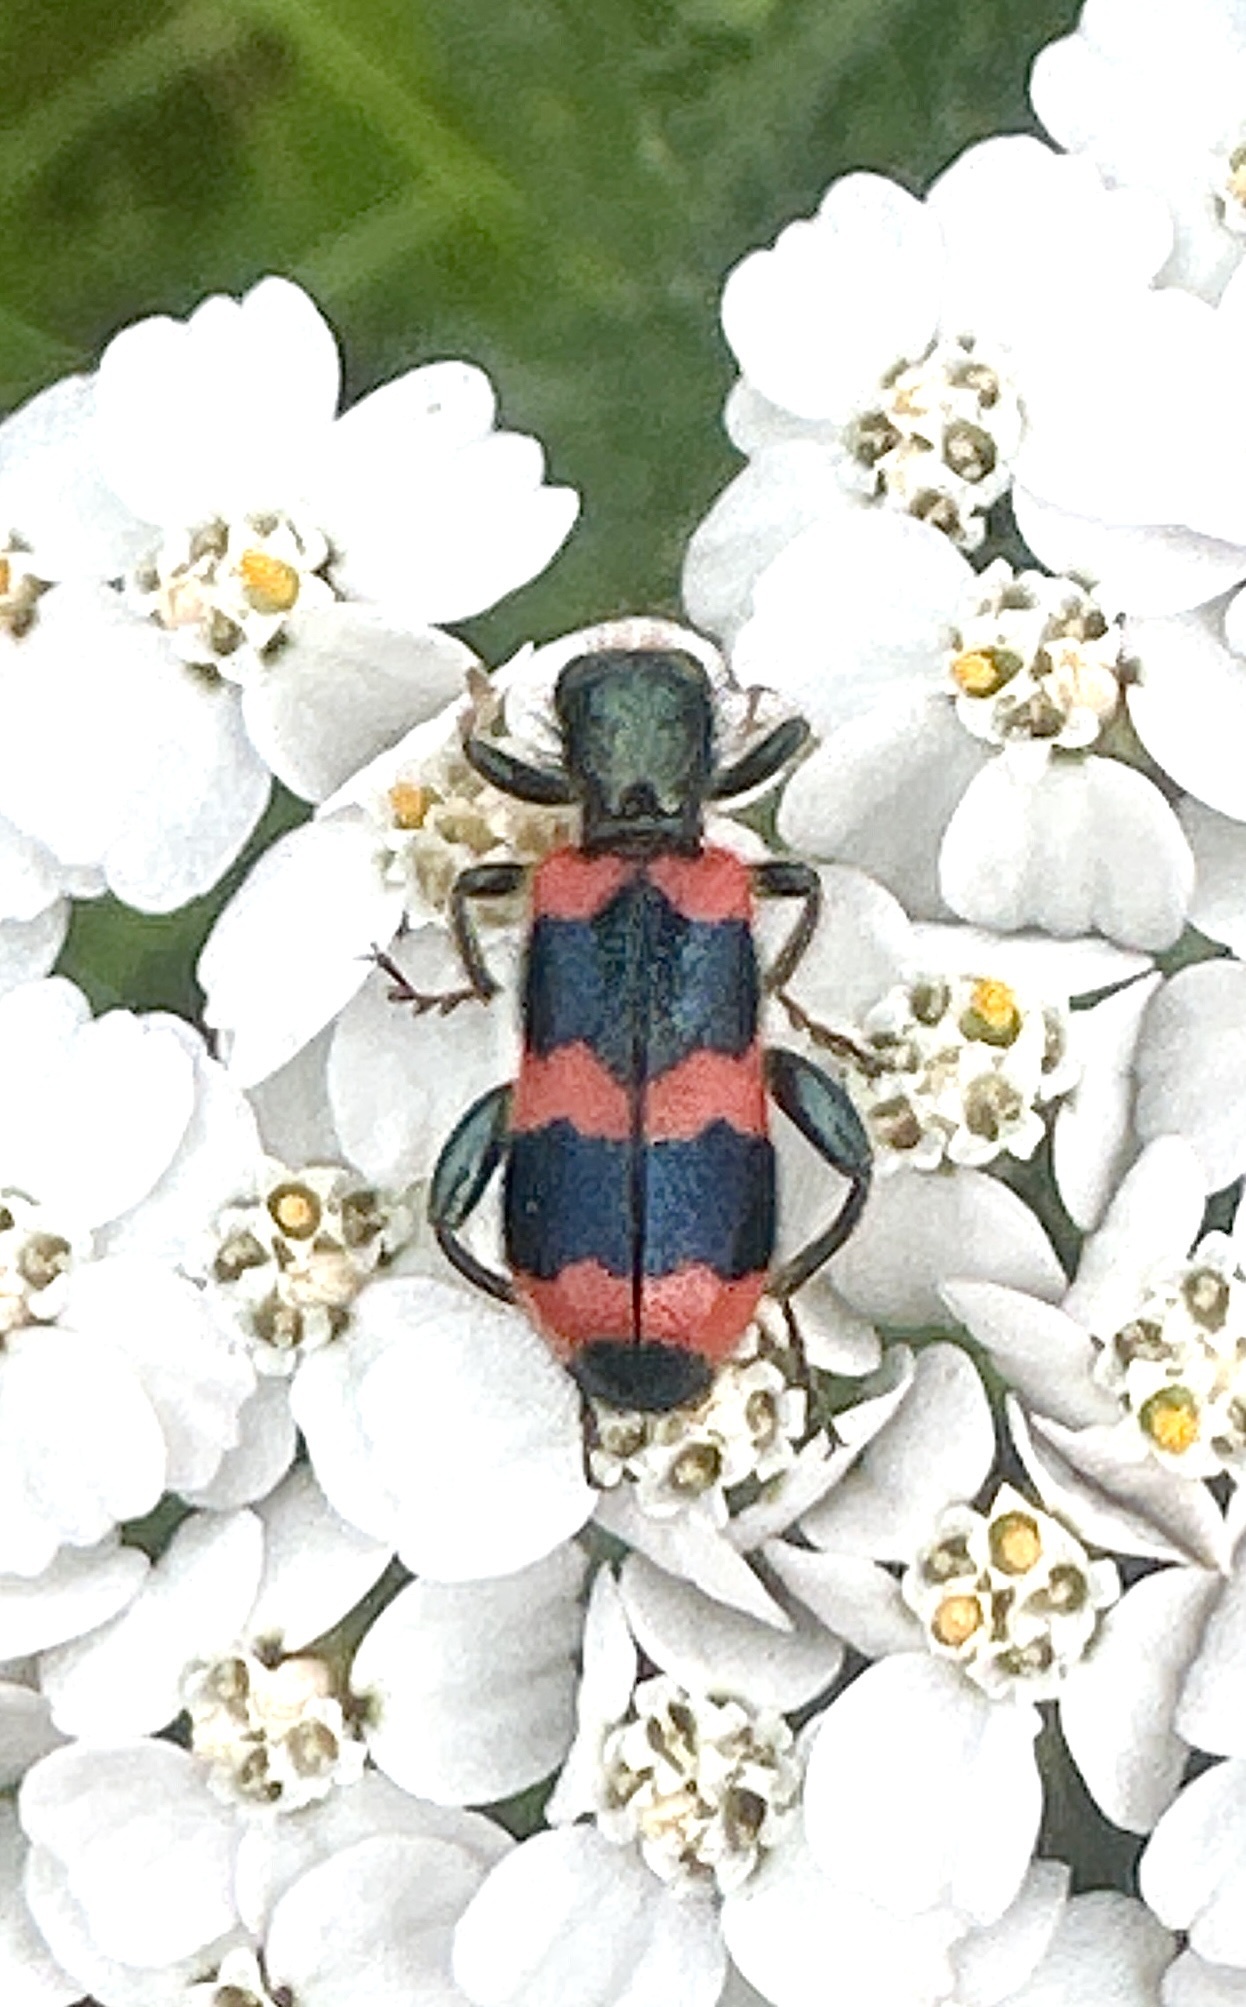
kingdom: Animalia
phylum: Arthropoda
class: Insecta
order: Coleoptera
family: Cleridae
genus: Trichodes
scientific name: Trichodes apiarius
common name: Bee-eating beetle
